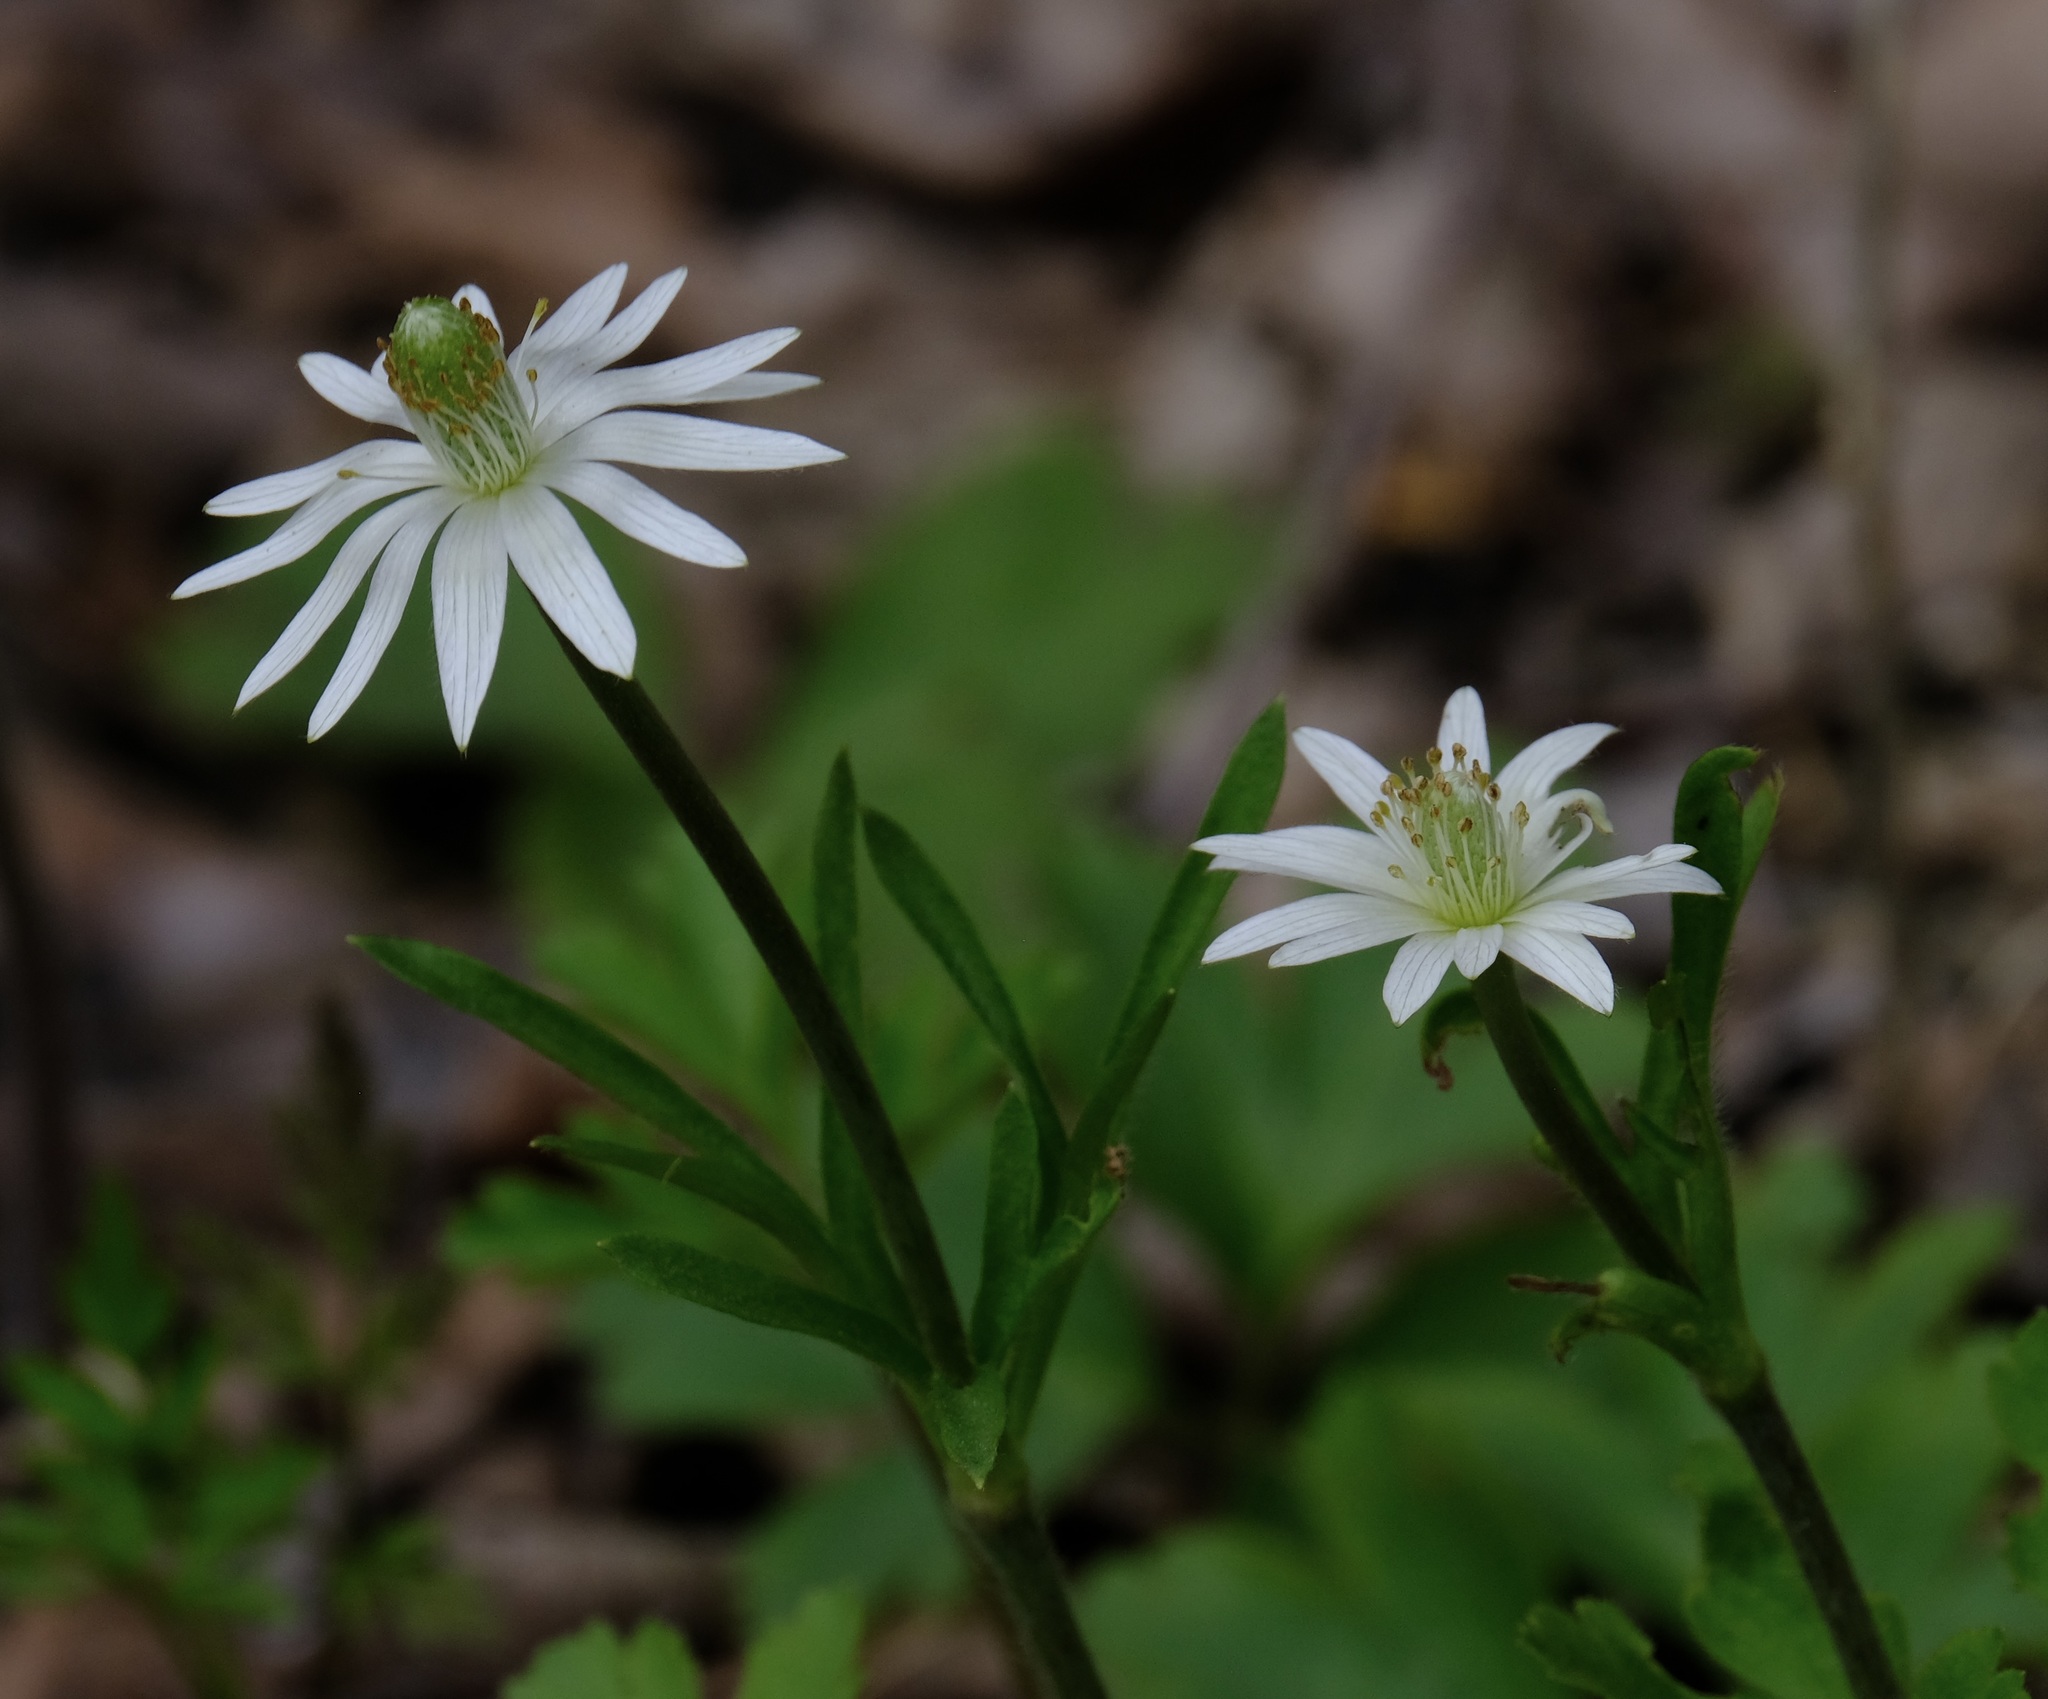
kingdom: Plantae
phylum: Tracheophyta
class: Magnoliopsida
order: Ranunculales
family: Ranunculaceae
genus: Anemone
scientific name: Anemone berlandieri
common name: Ten-petal anemone
